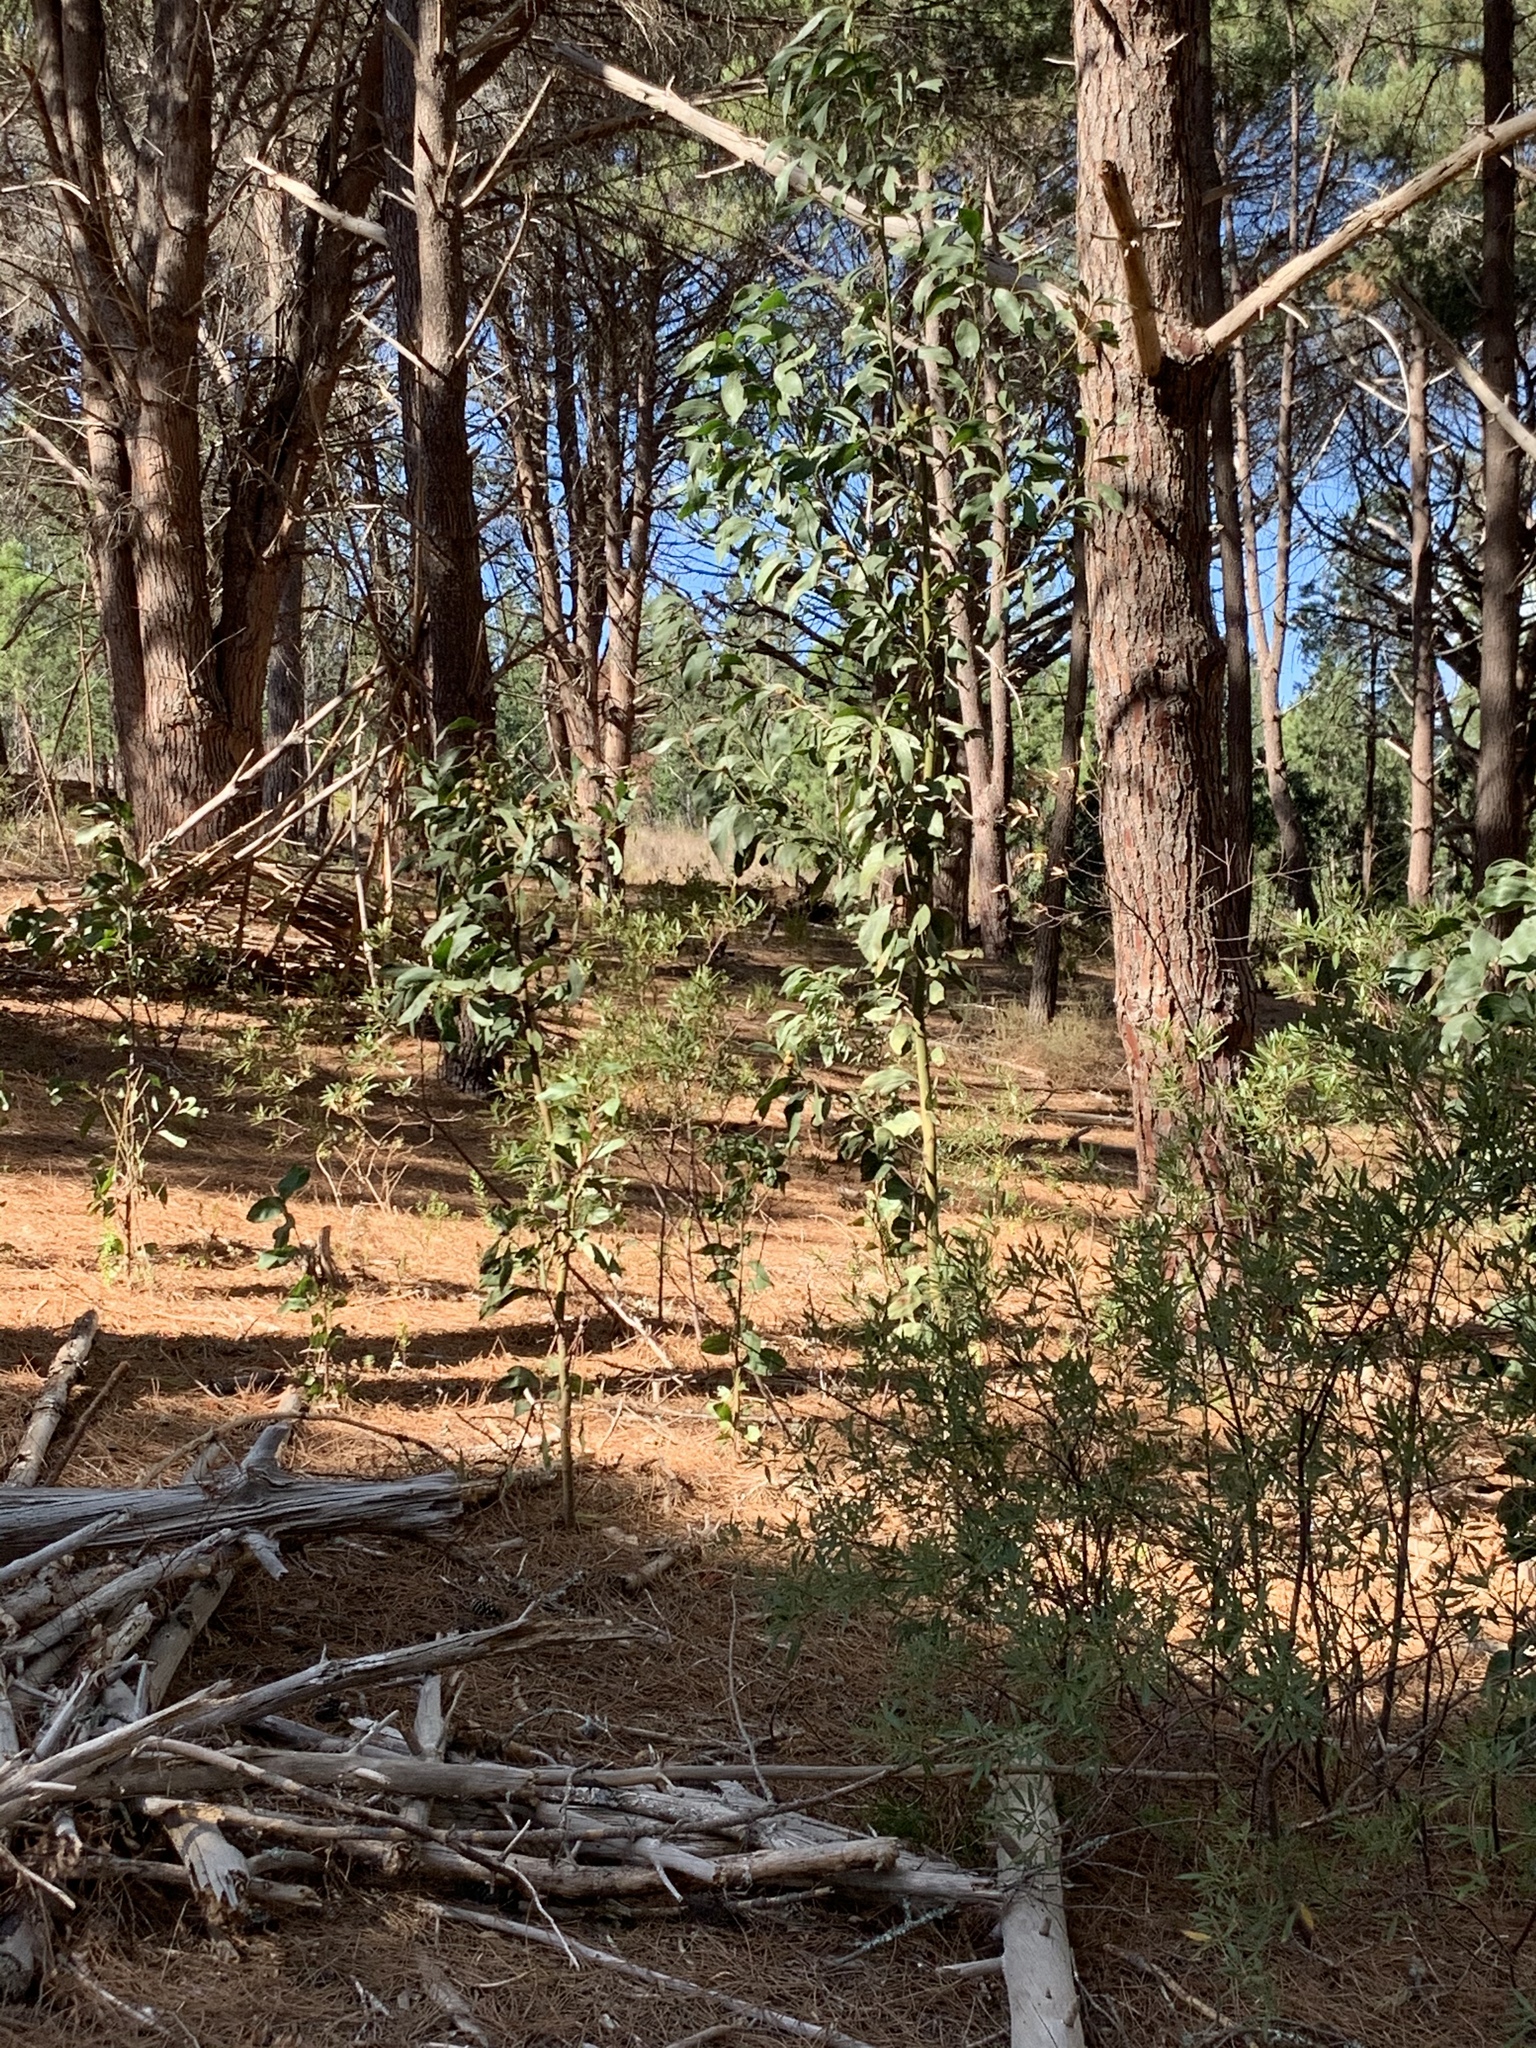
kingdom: Plantae
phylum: Tracheophyta
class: Magnoliopsida
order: Fabales
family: Fabaceae
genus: Acacia
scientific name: Acacia pycnantha
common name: Golden wattle
